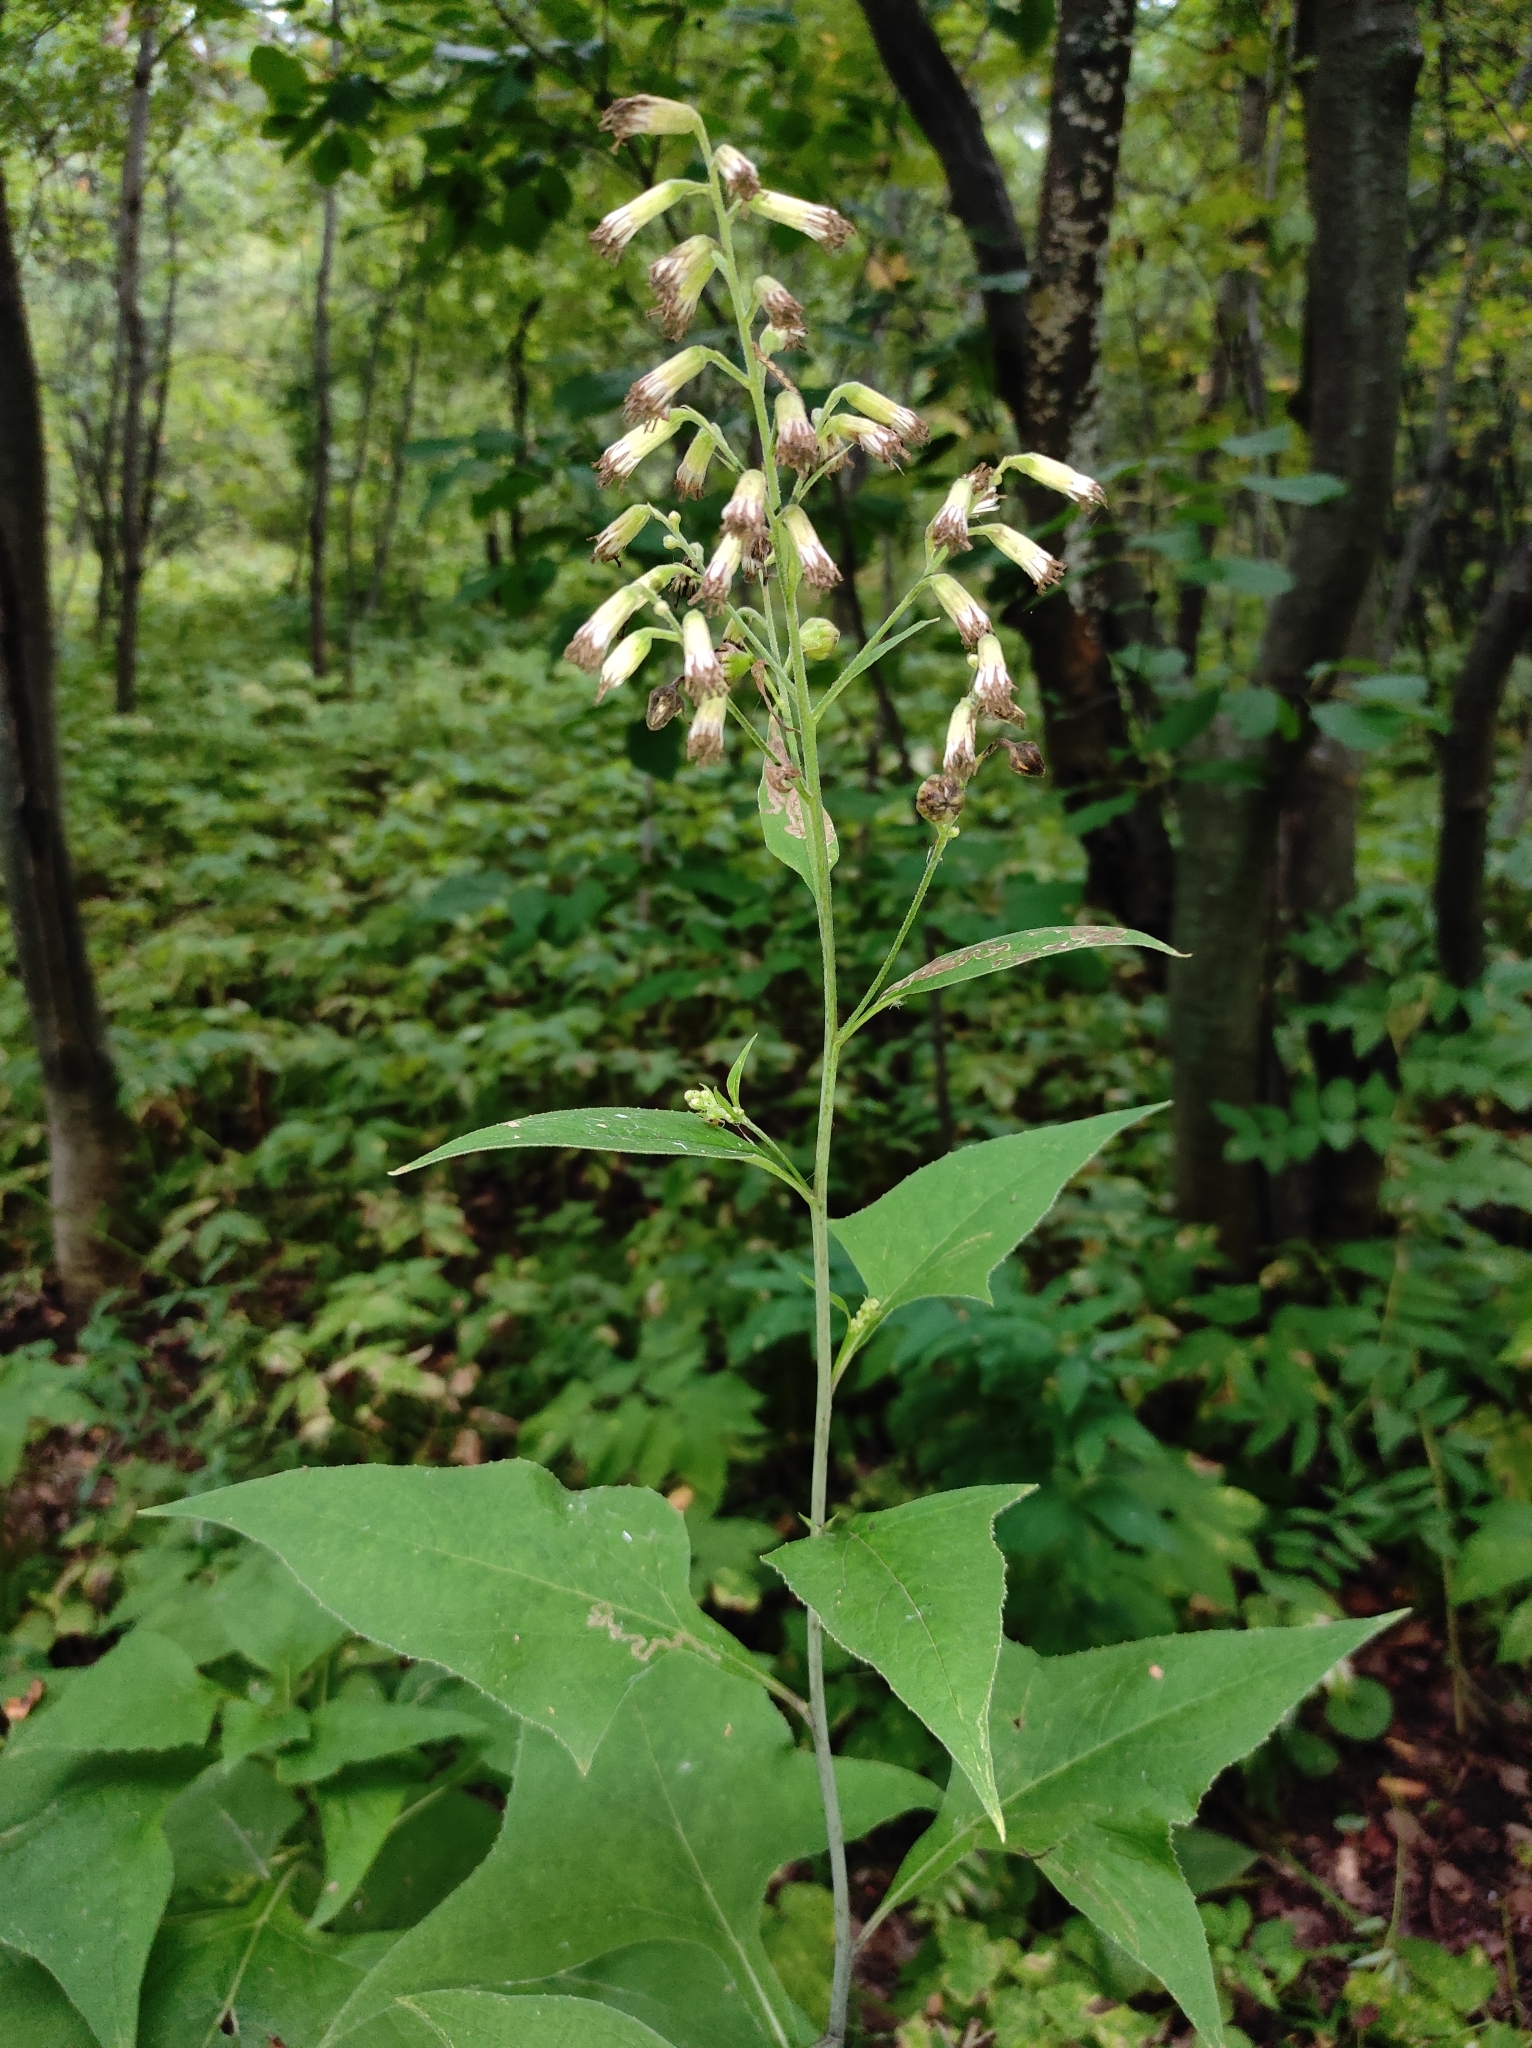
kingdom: Plantae
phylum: Tracheophyta
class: Magnoliopsida
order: Asterales
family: Asteraceae
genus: Parasenecio
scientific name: Parasenecio hastatus
